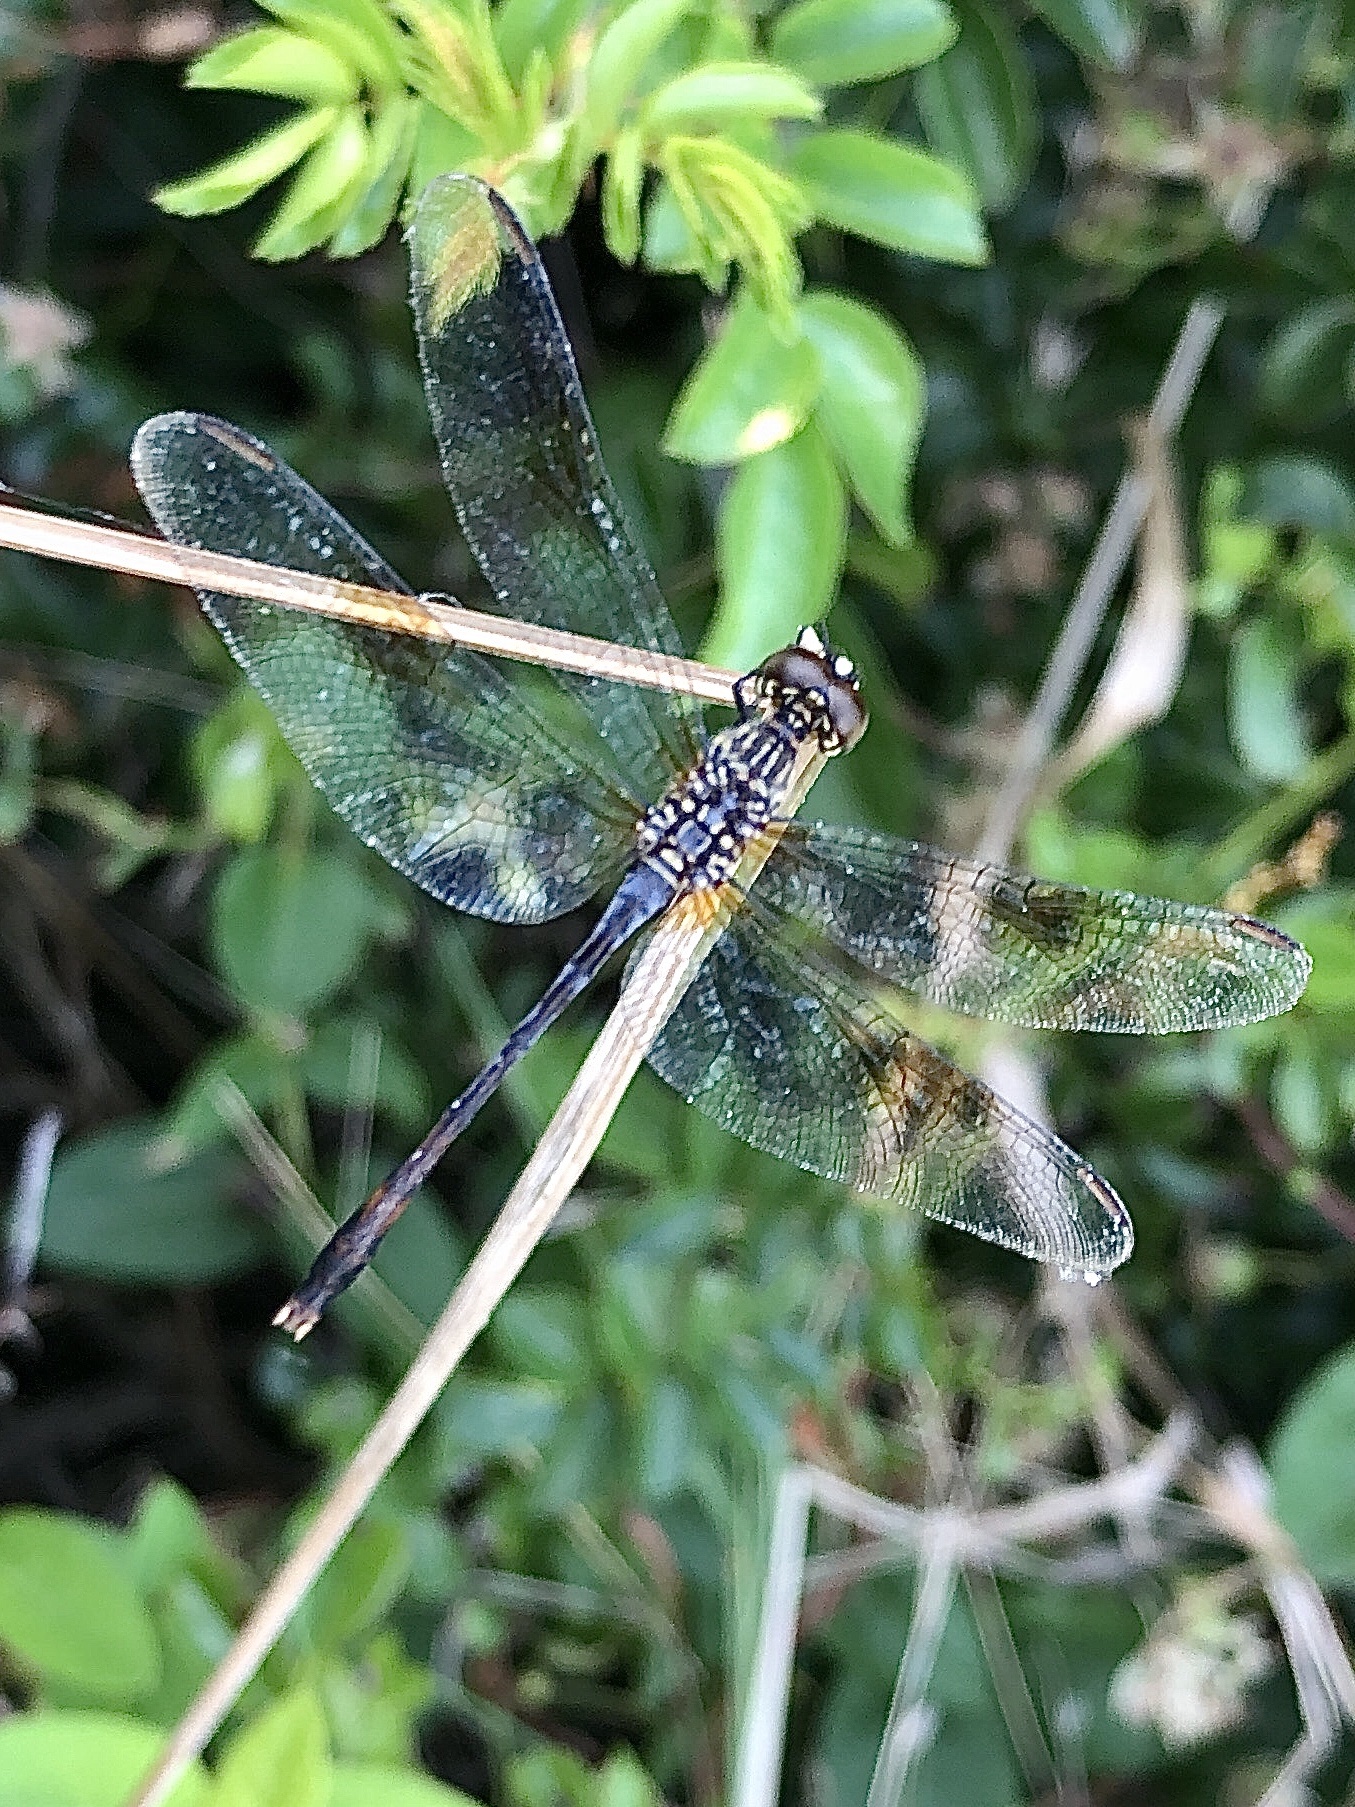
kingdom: Animalia
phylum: Arthropoda
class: Insecta
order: Odonata
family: Libellulidae
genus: Erythrodiplax
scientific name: Erythrodiplax berenice
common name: Seaside dragonlet
